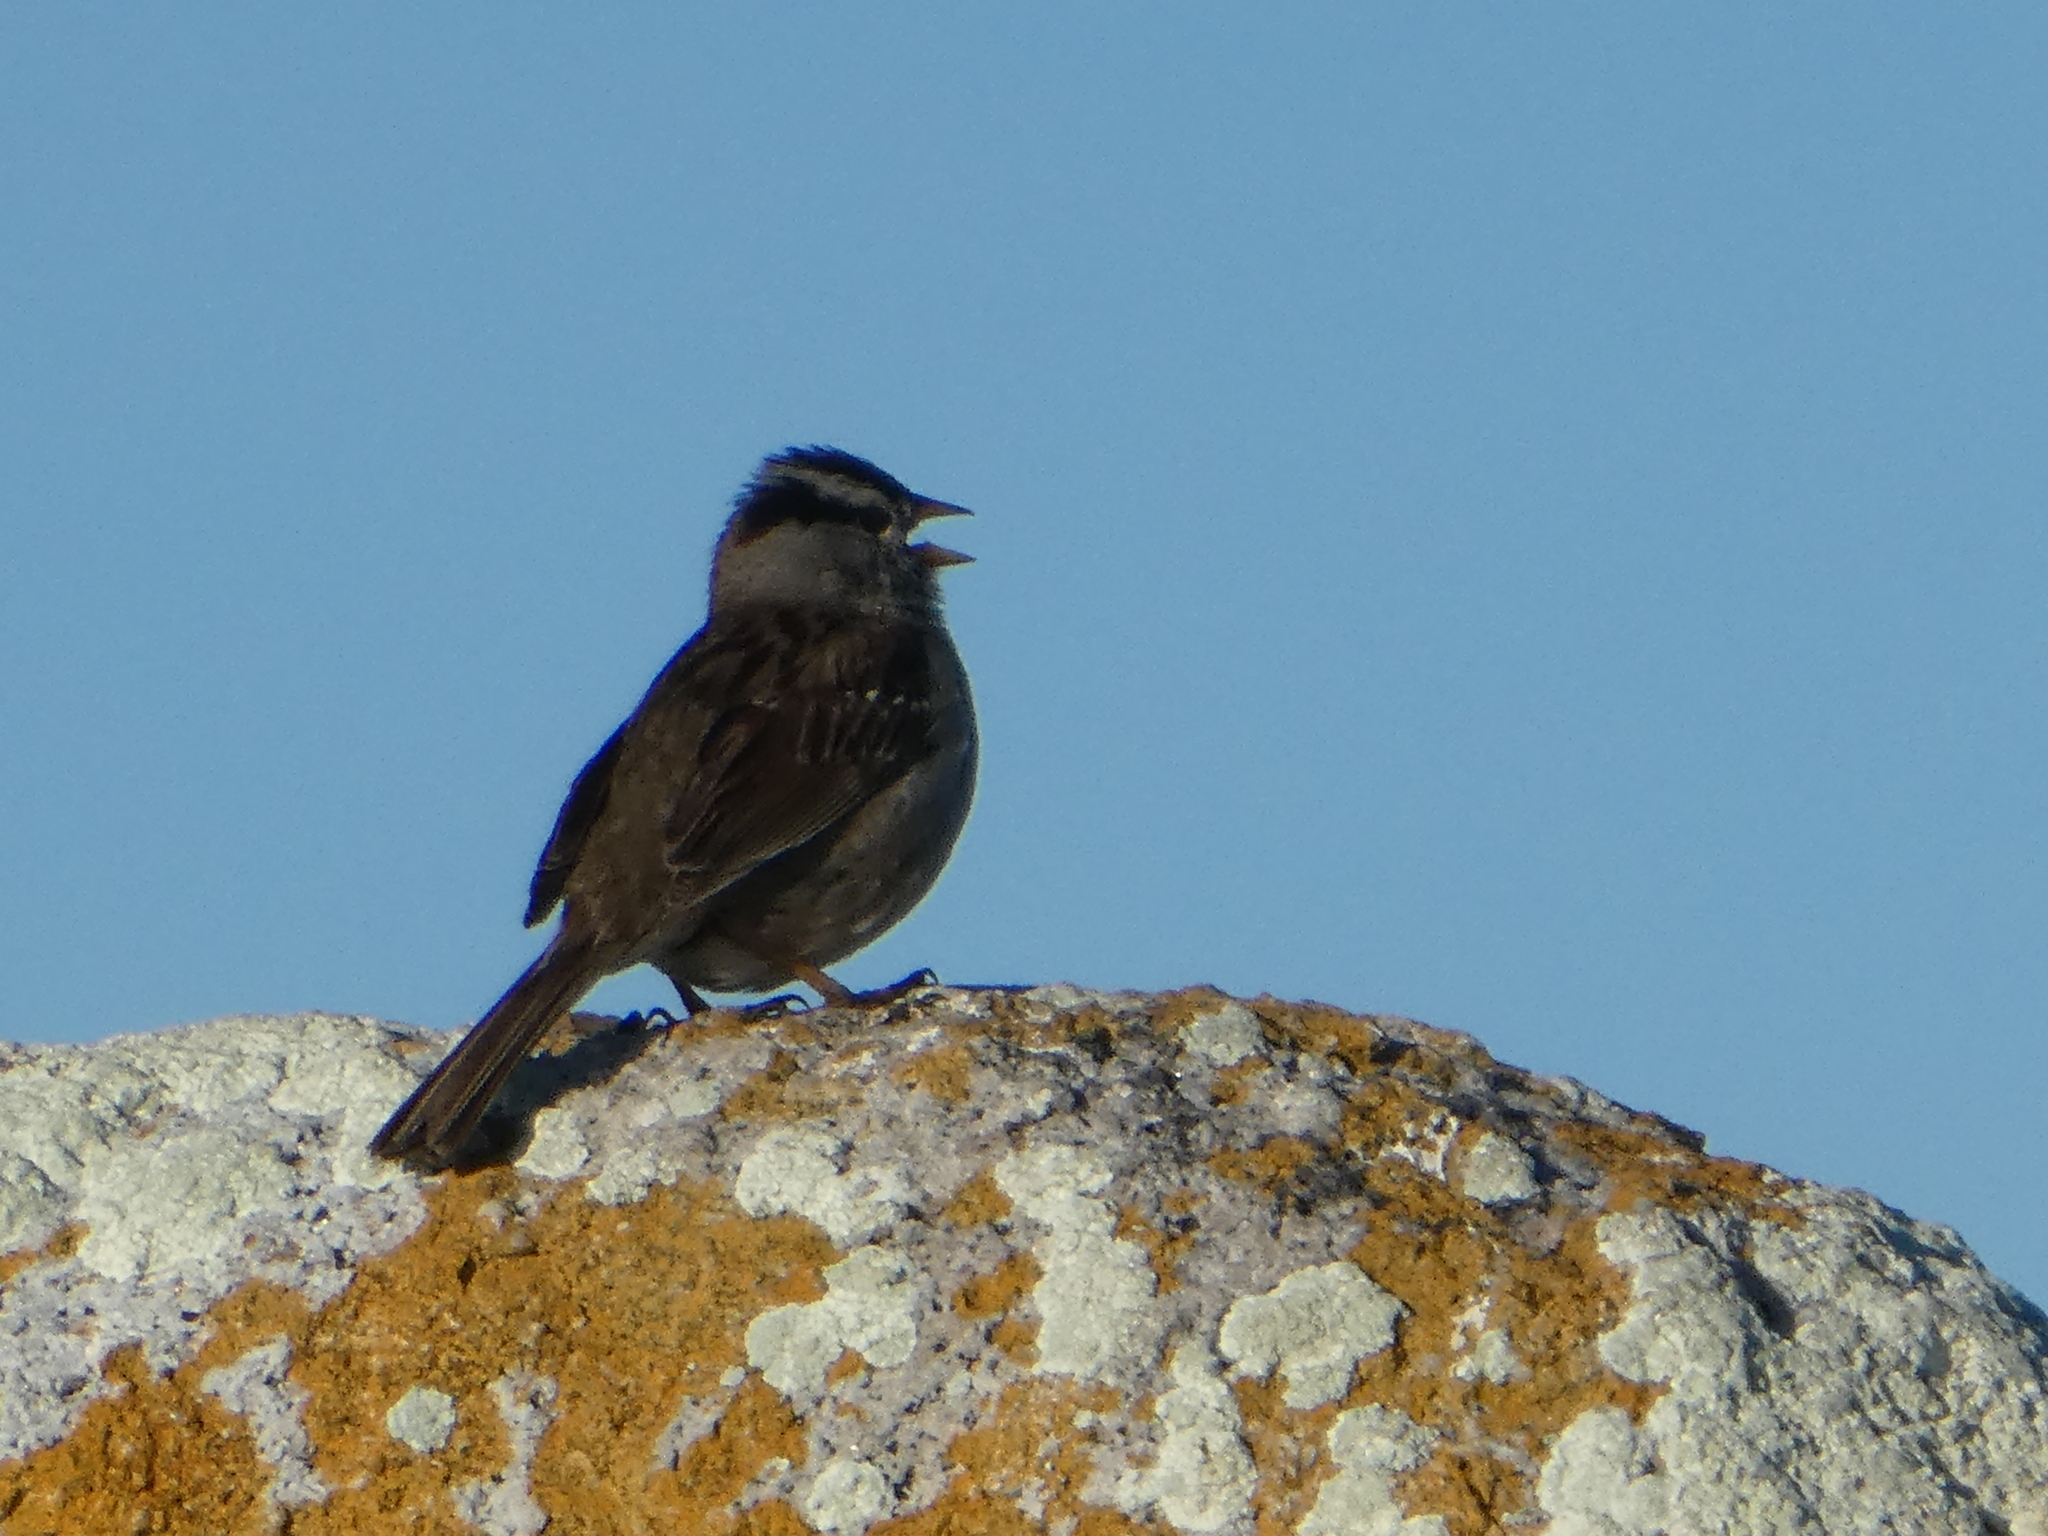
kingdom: Animalia
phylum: Chordata
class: Aves
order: Passeriformes
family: Passerellidae
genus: Zonotrichia
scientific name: Zonotrichia leucophrys
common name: White-crowned sparrow
